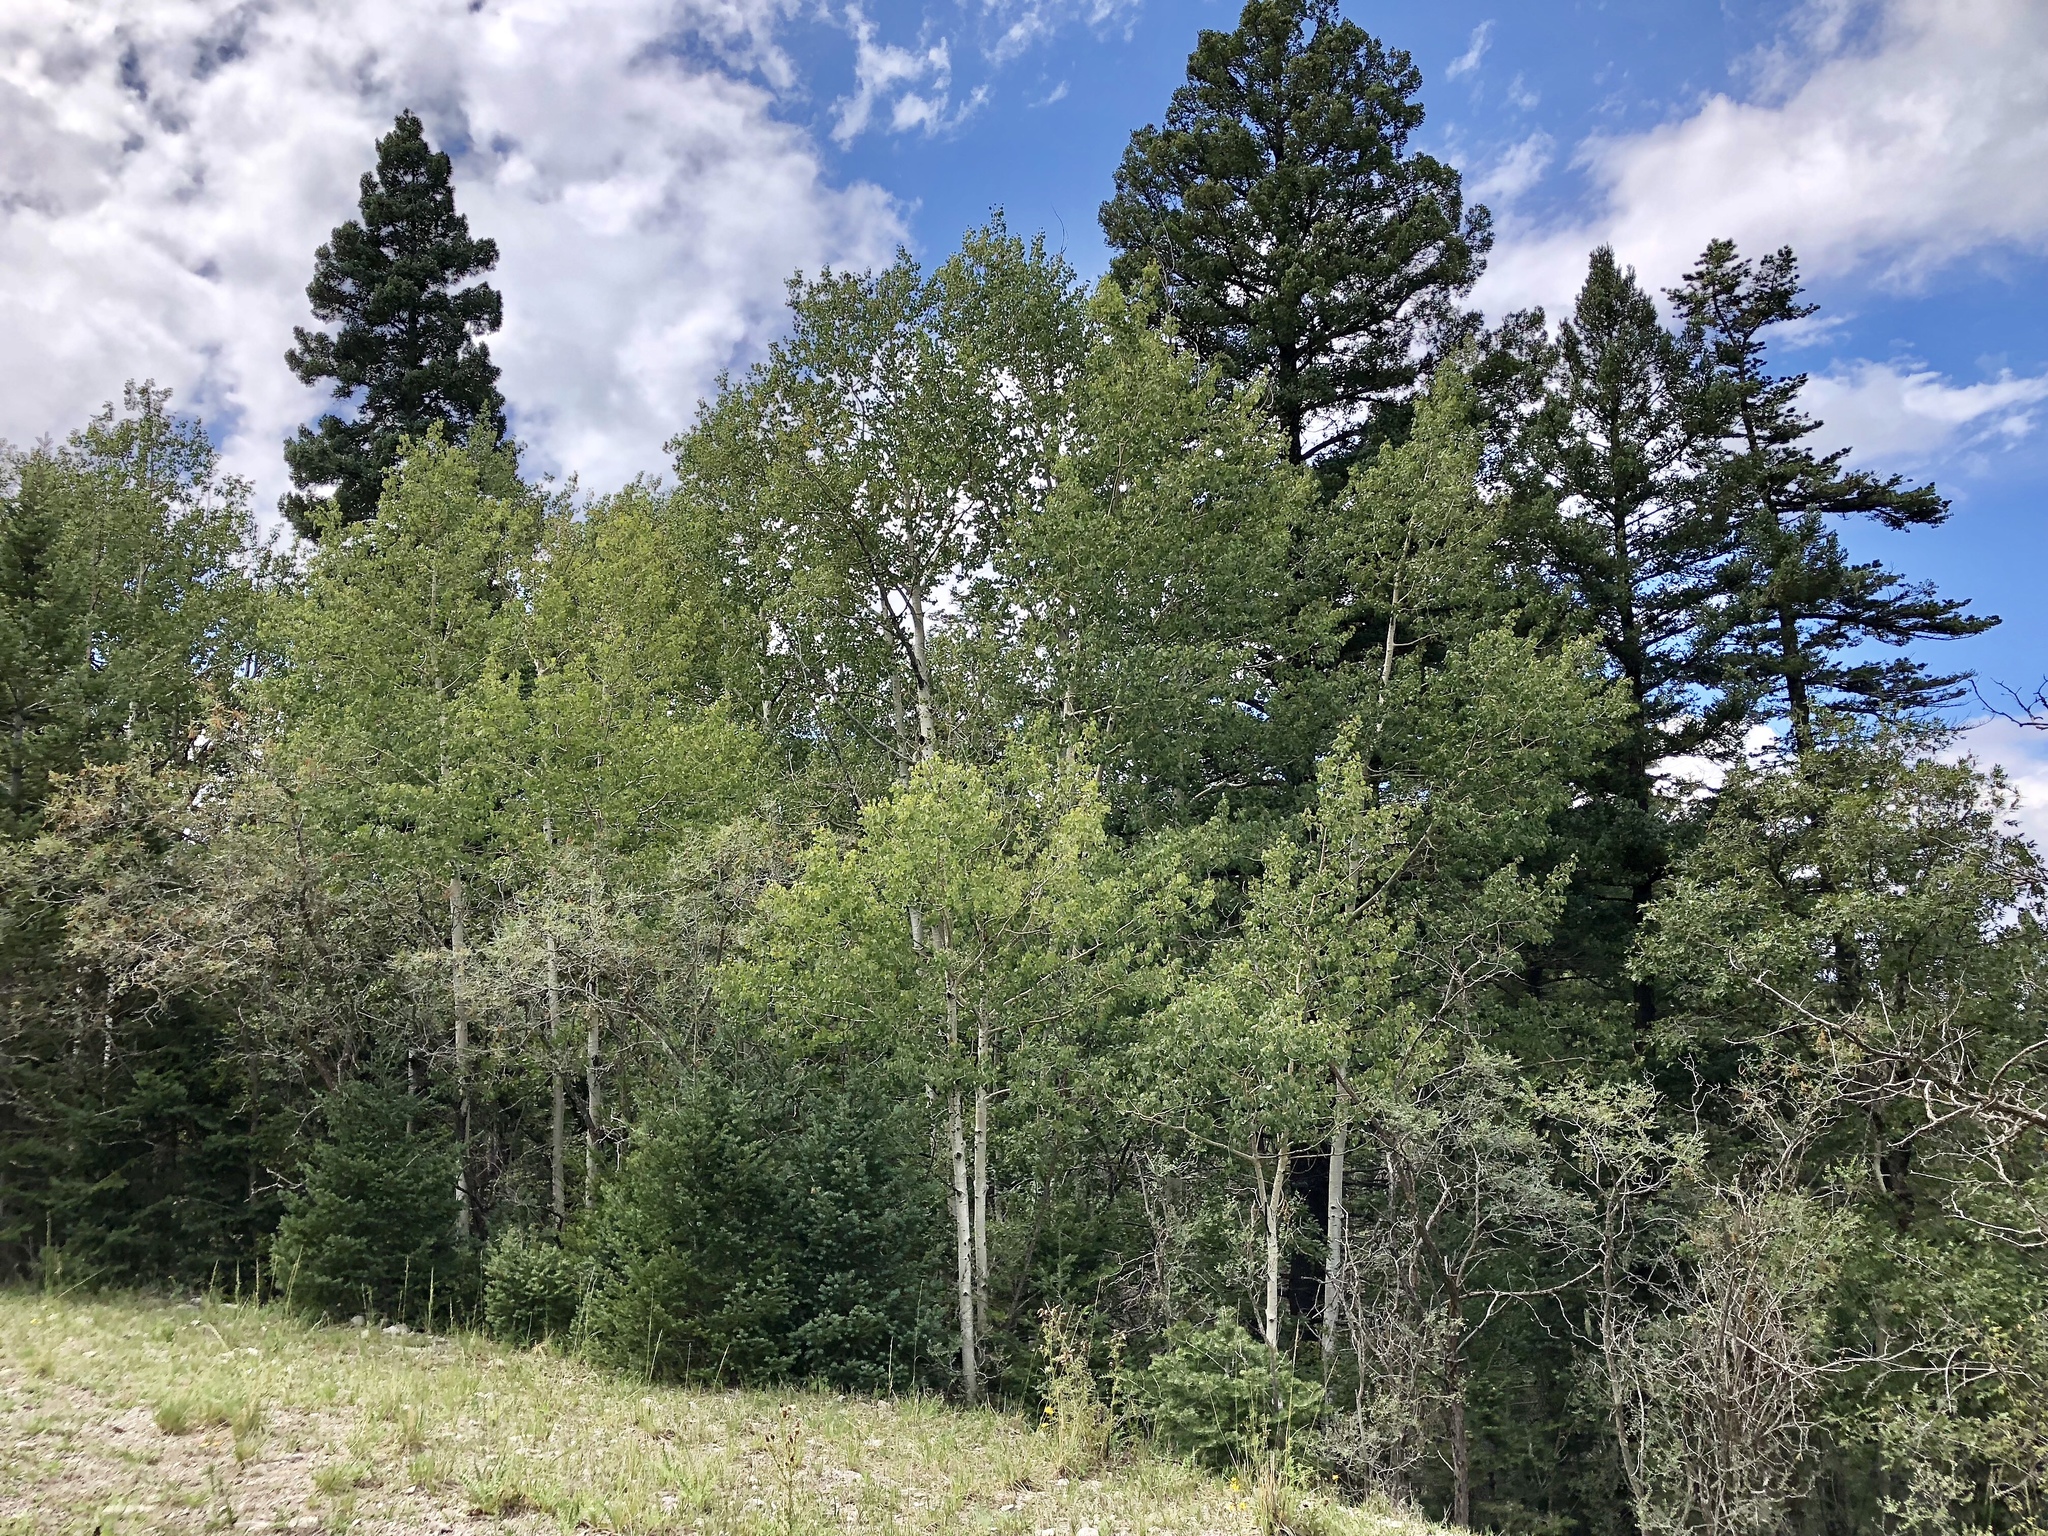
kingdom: Plantae
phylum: Tracheophyta
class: Magnoliopsida
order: Malpighiales
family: Salicaceae
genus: Populus
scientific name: Populus tremuloides
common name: Quaking aspen
